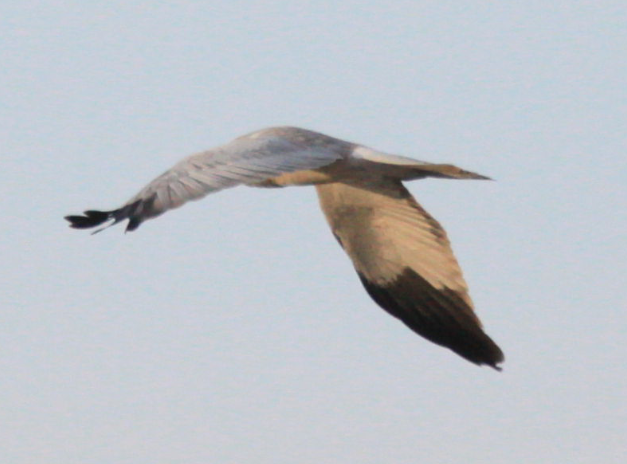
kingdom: Animalia
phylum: Chordata
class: Aves
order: Accipitriformes
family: Accipitridae
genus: Circus
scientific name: Circus cyaneus
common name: Hen harrier
